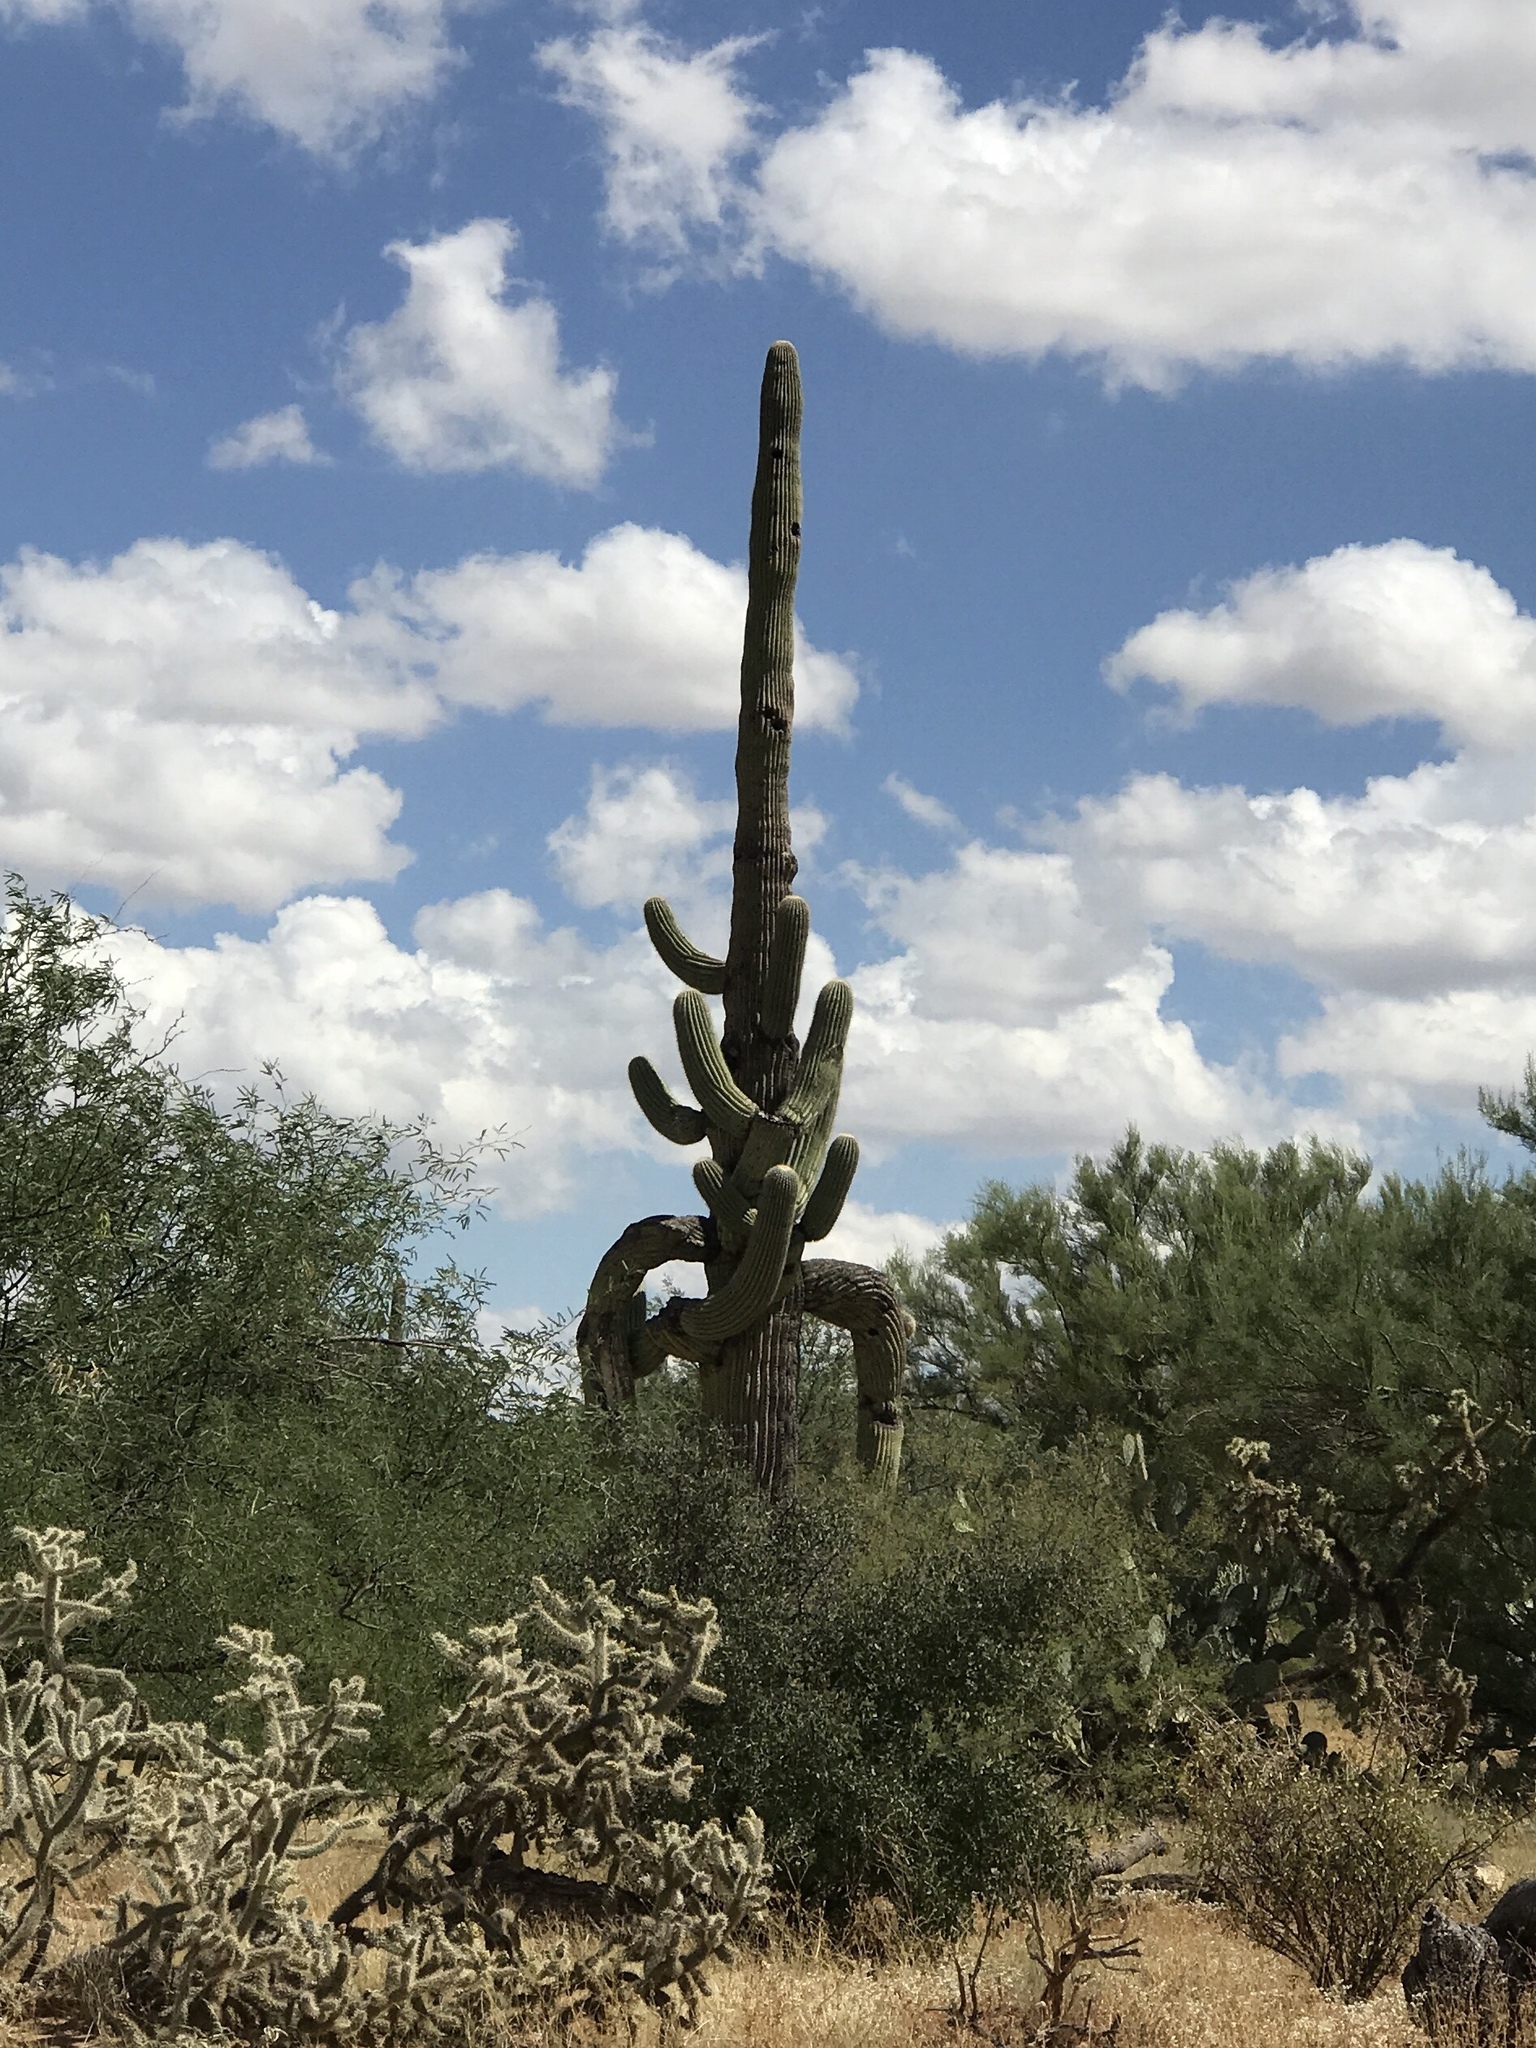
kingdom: Plantae
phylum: Tracheophyta
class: Magnoliopsida
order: Caryophyllales
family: Cactaceae
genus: Carnegiea
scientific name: Carnegiea gigantea
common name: Saguaro
